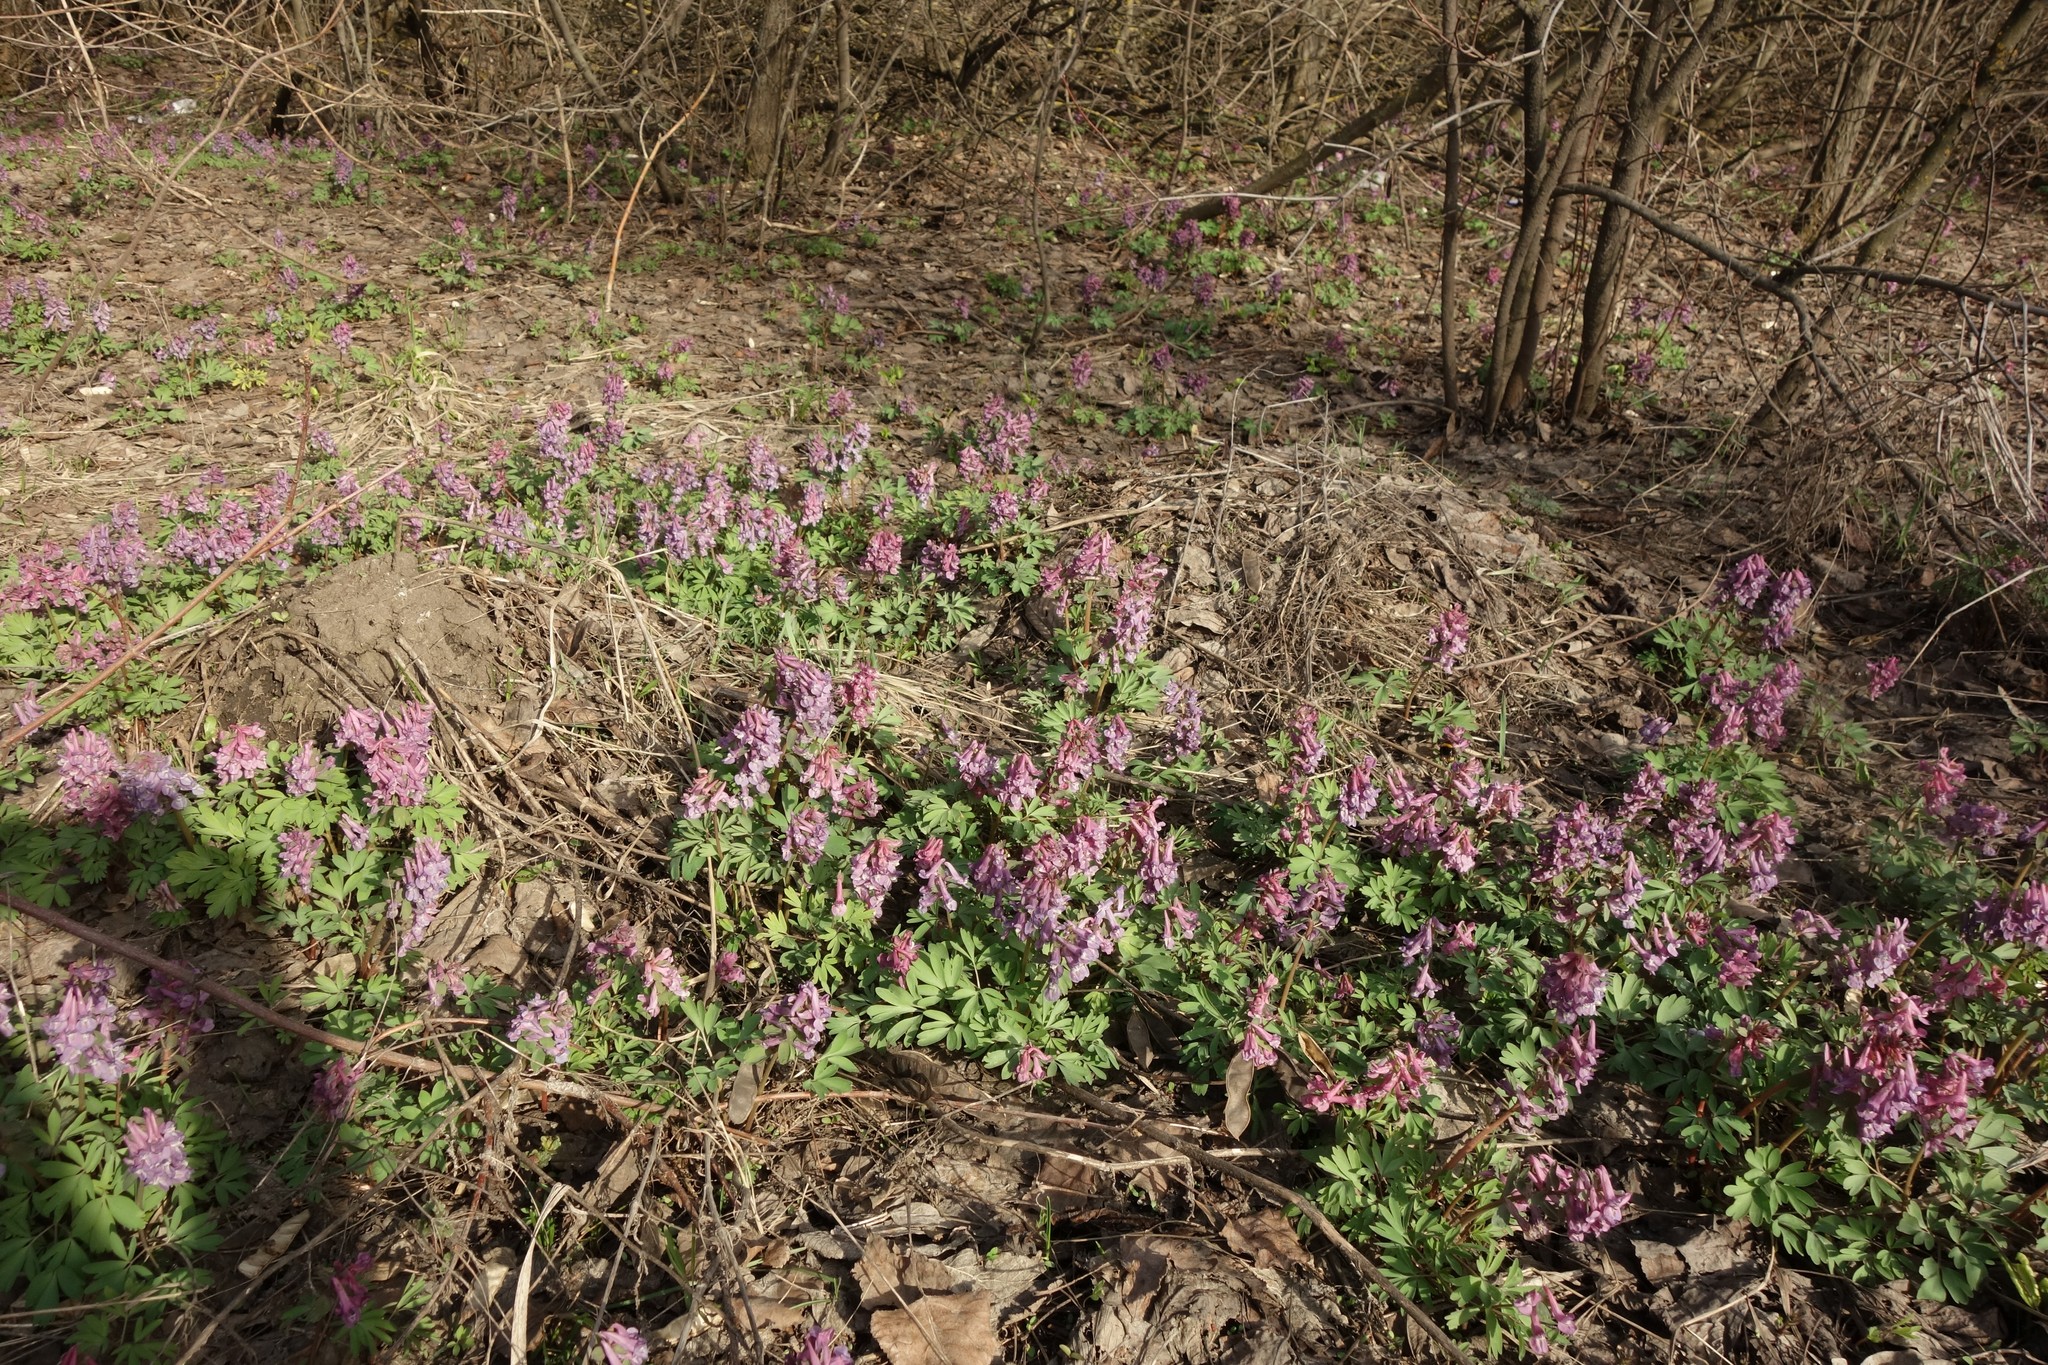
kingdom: Plantae
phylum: Tracheophyta
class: Magnoliopsida
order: Ranunculales
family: Papaveraceae
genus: Corydalis
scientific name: Corydalis solida
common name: Bird-in-a-bush
